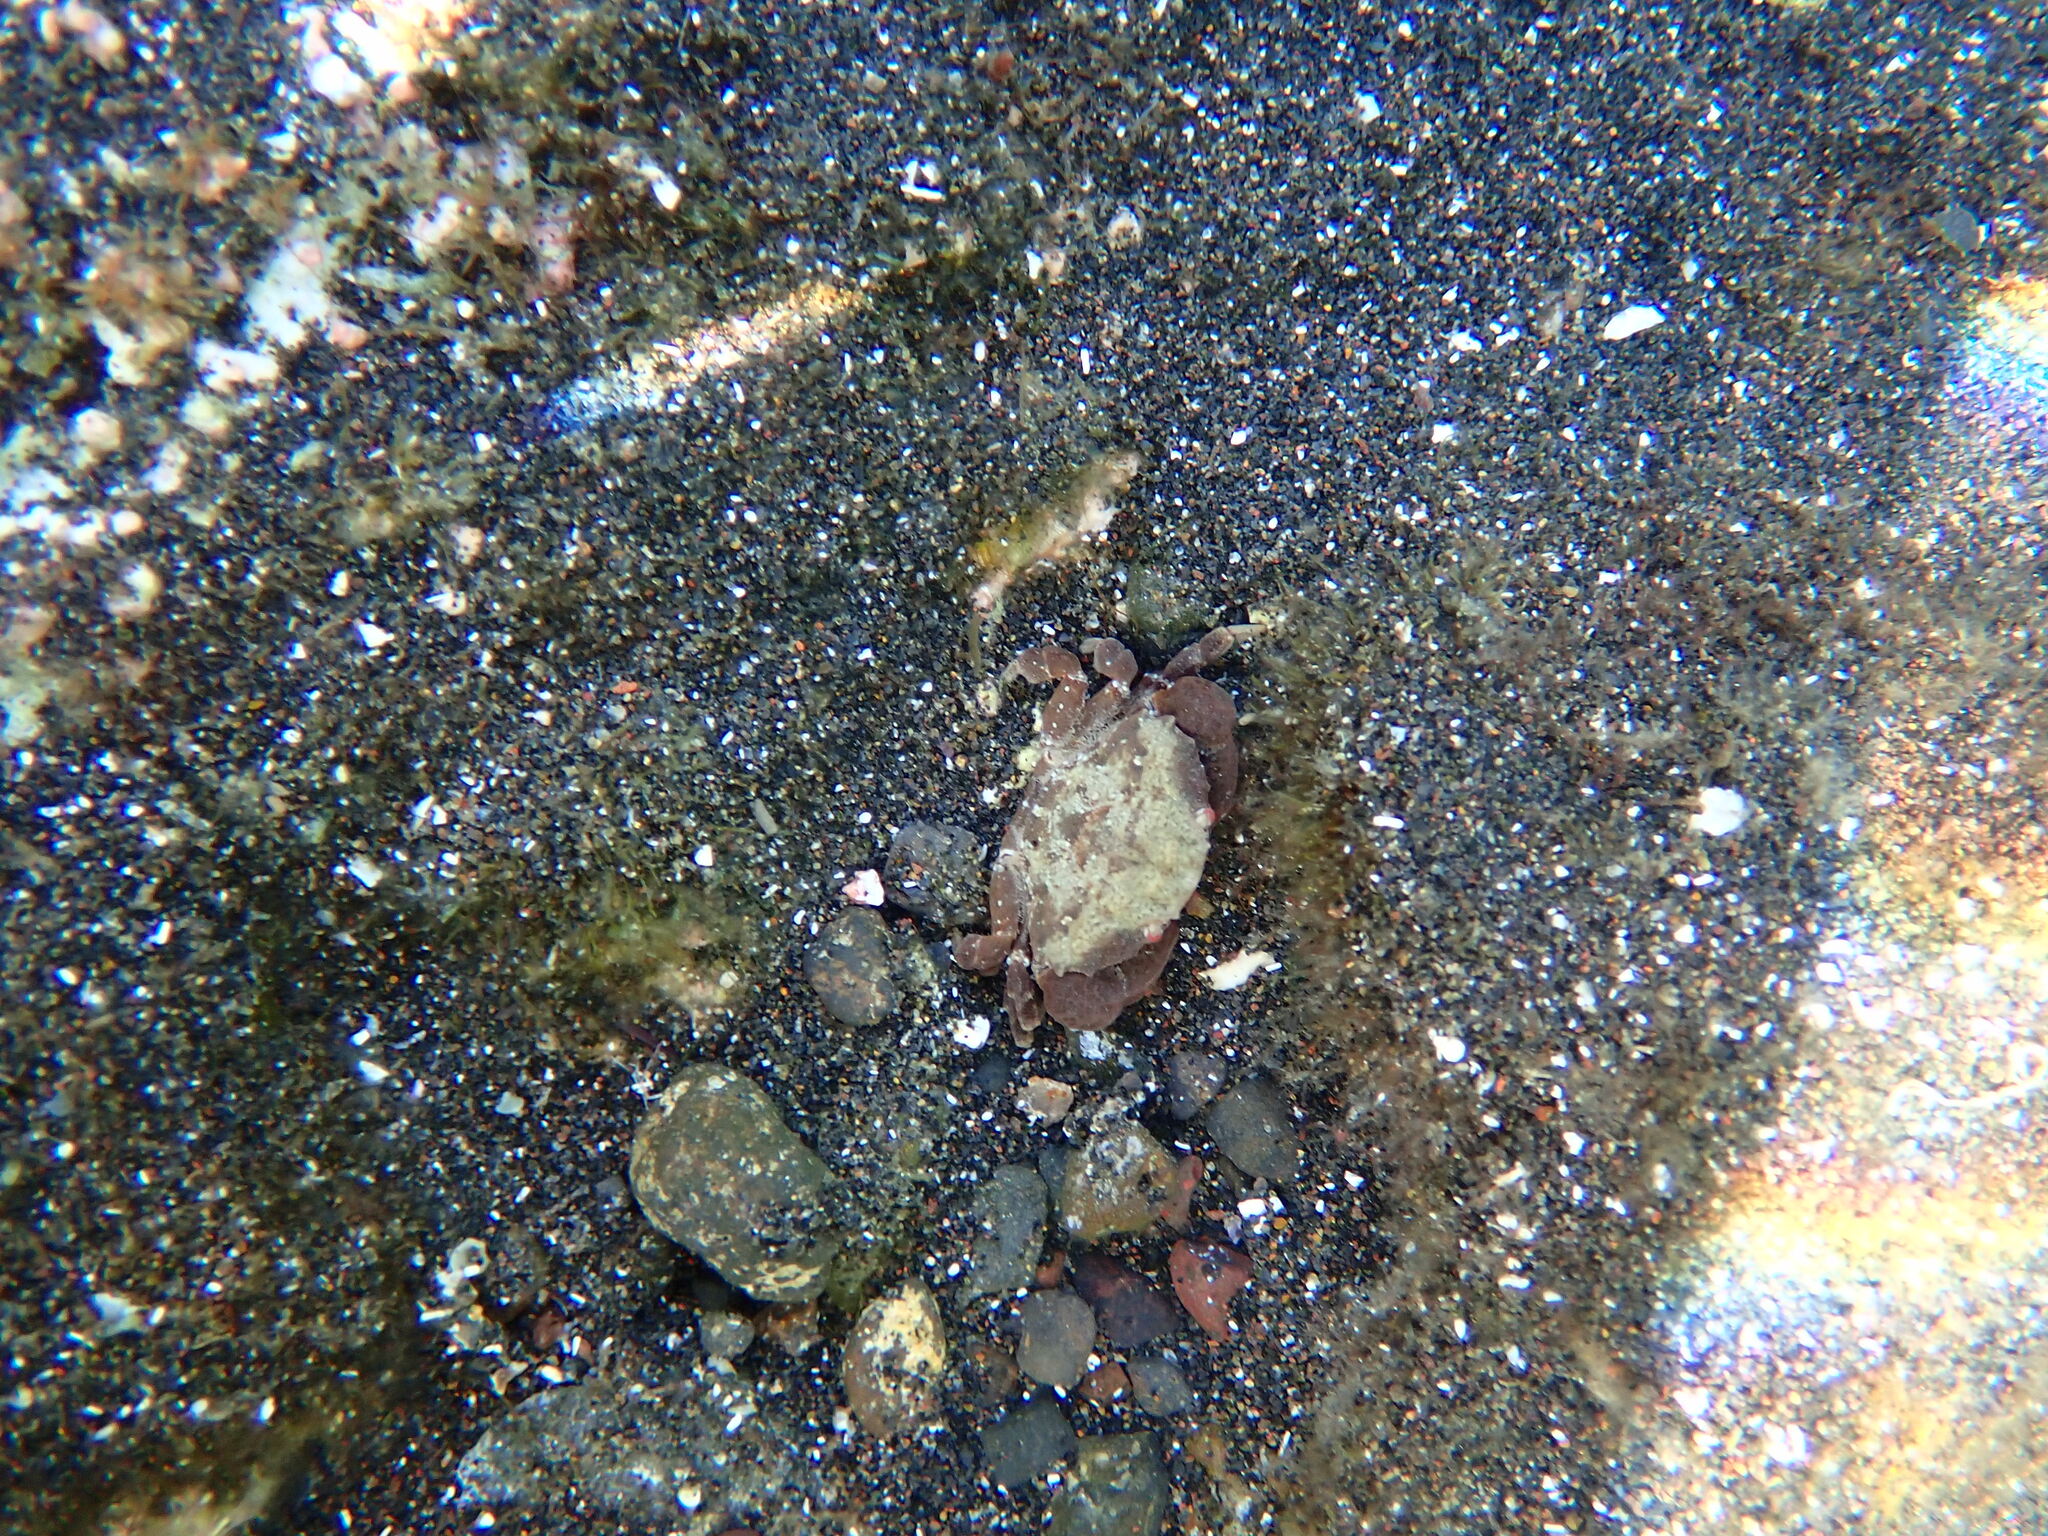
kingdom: Animalia
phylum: Arthropoda
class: Malacostraca
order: Decapoda
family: Xanthidae
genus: Xantho
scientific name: Xantho hydrophilus
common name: Montagu's crab
